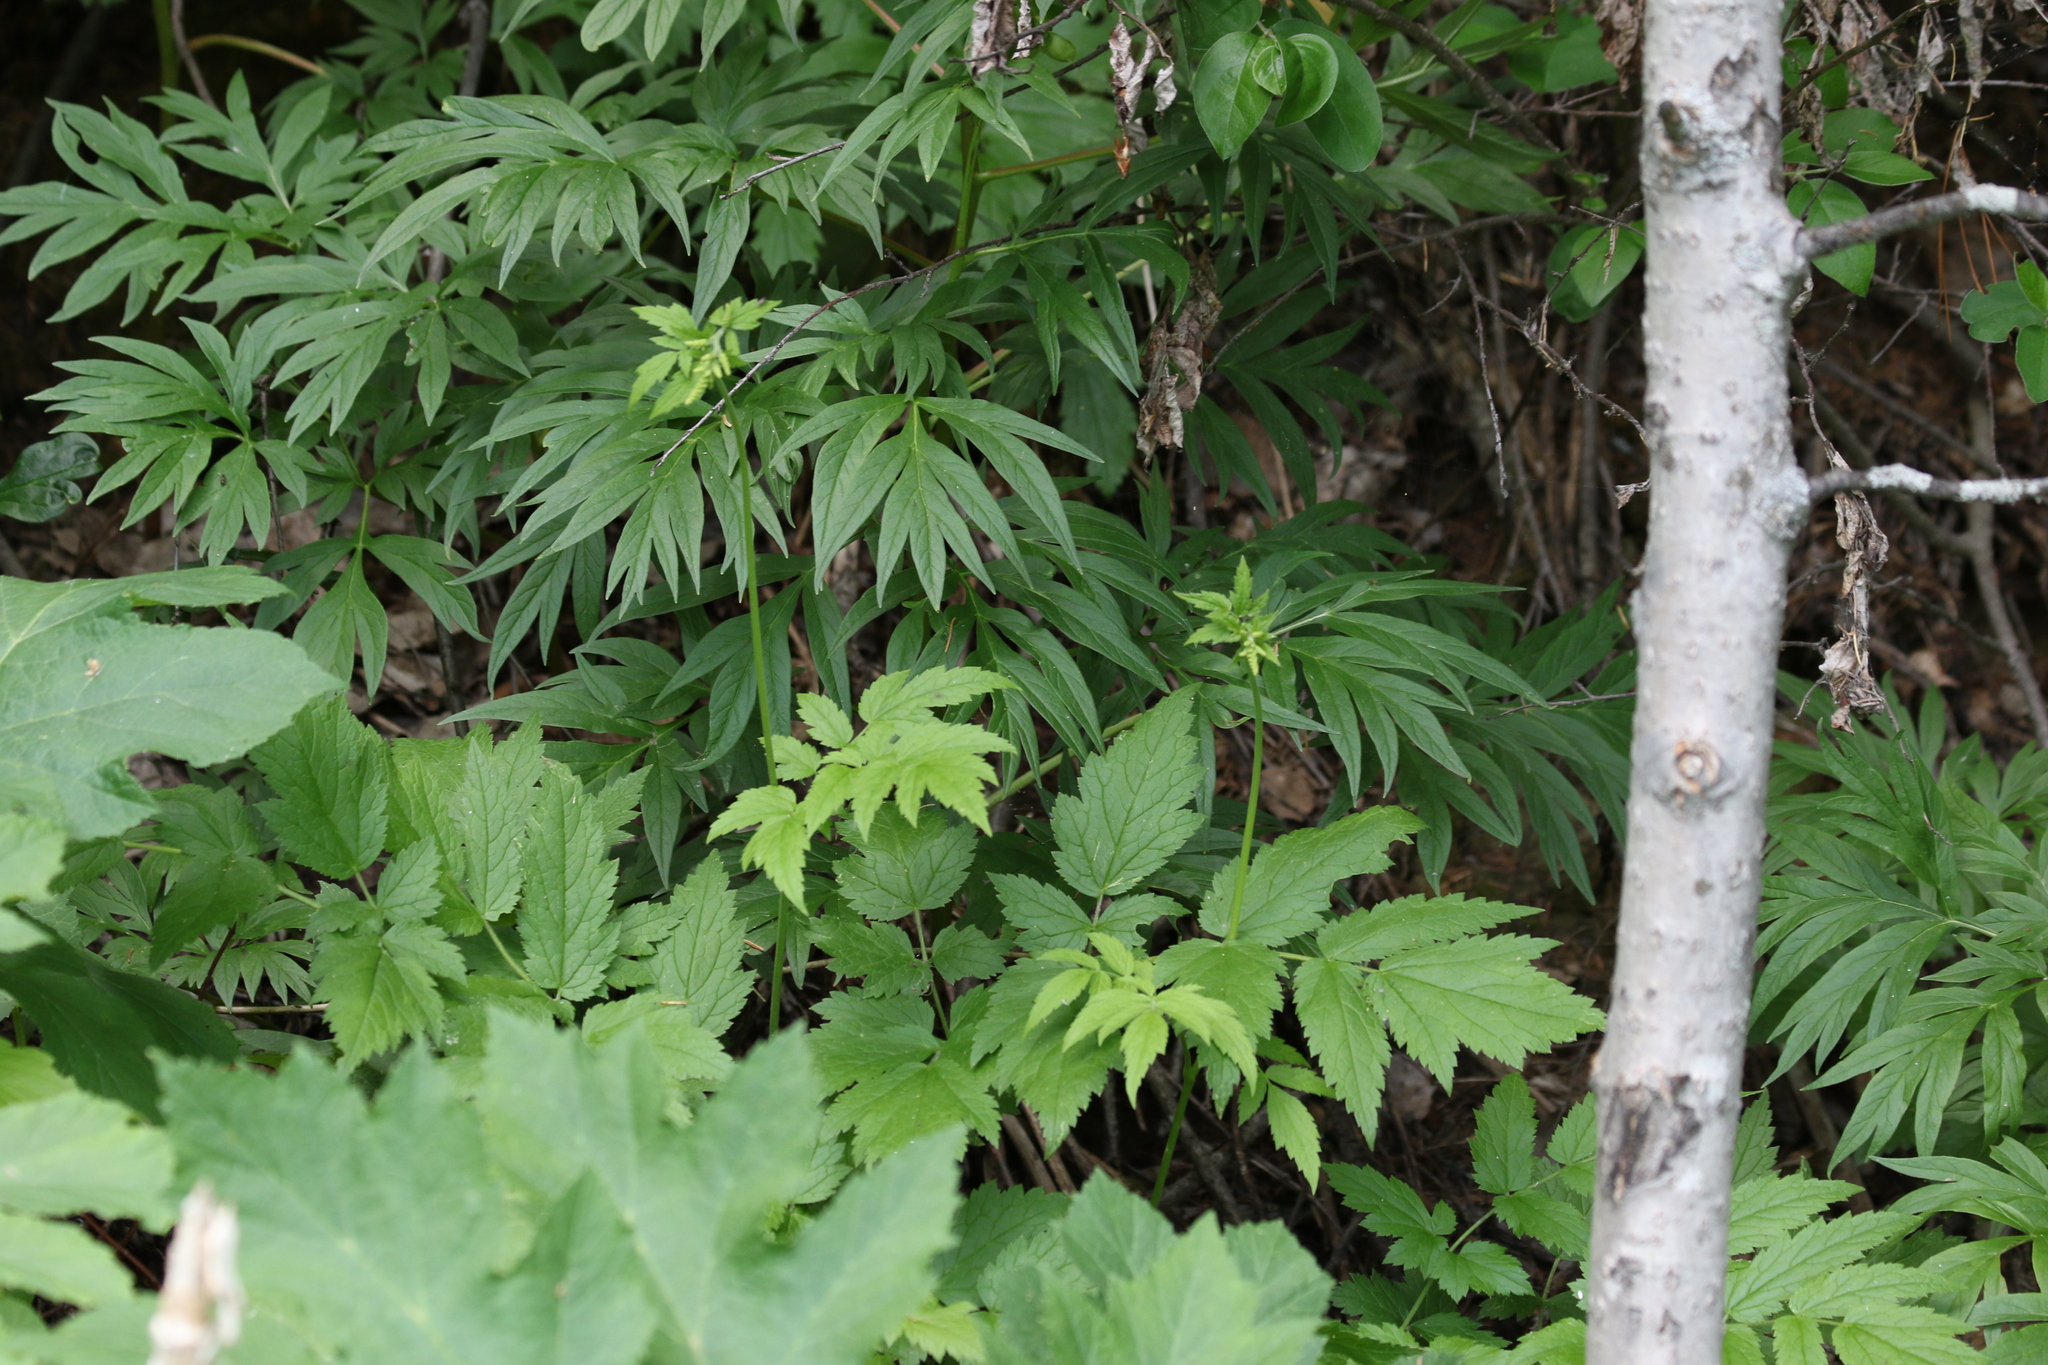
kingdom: Plantae
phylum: Tracheophyta
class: Magnoliopsida
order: Saxifragales
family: Paeoniaceae
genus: Paeonia
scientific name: Paeonia anomala
